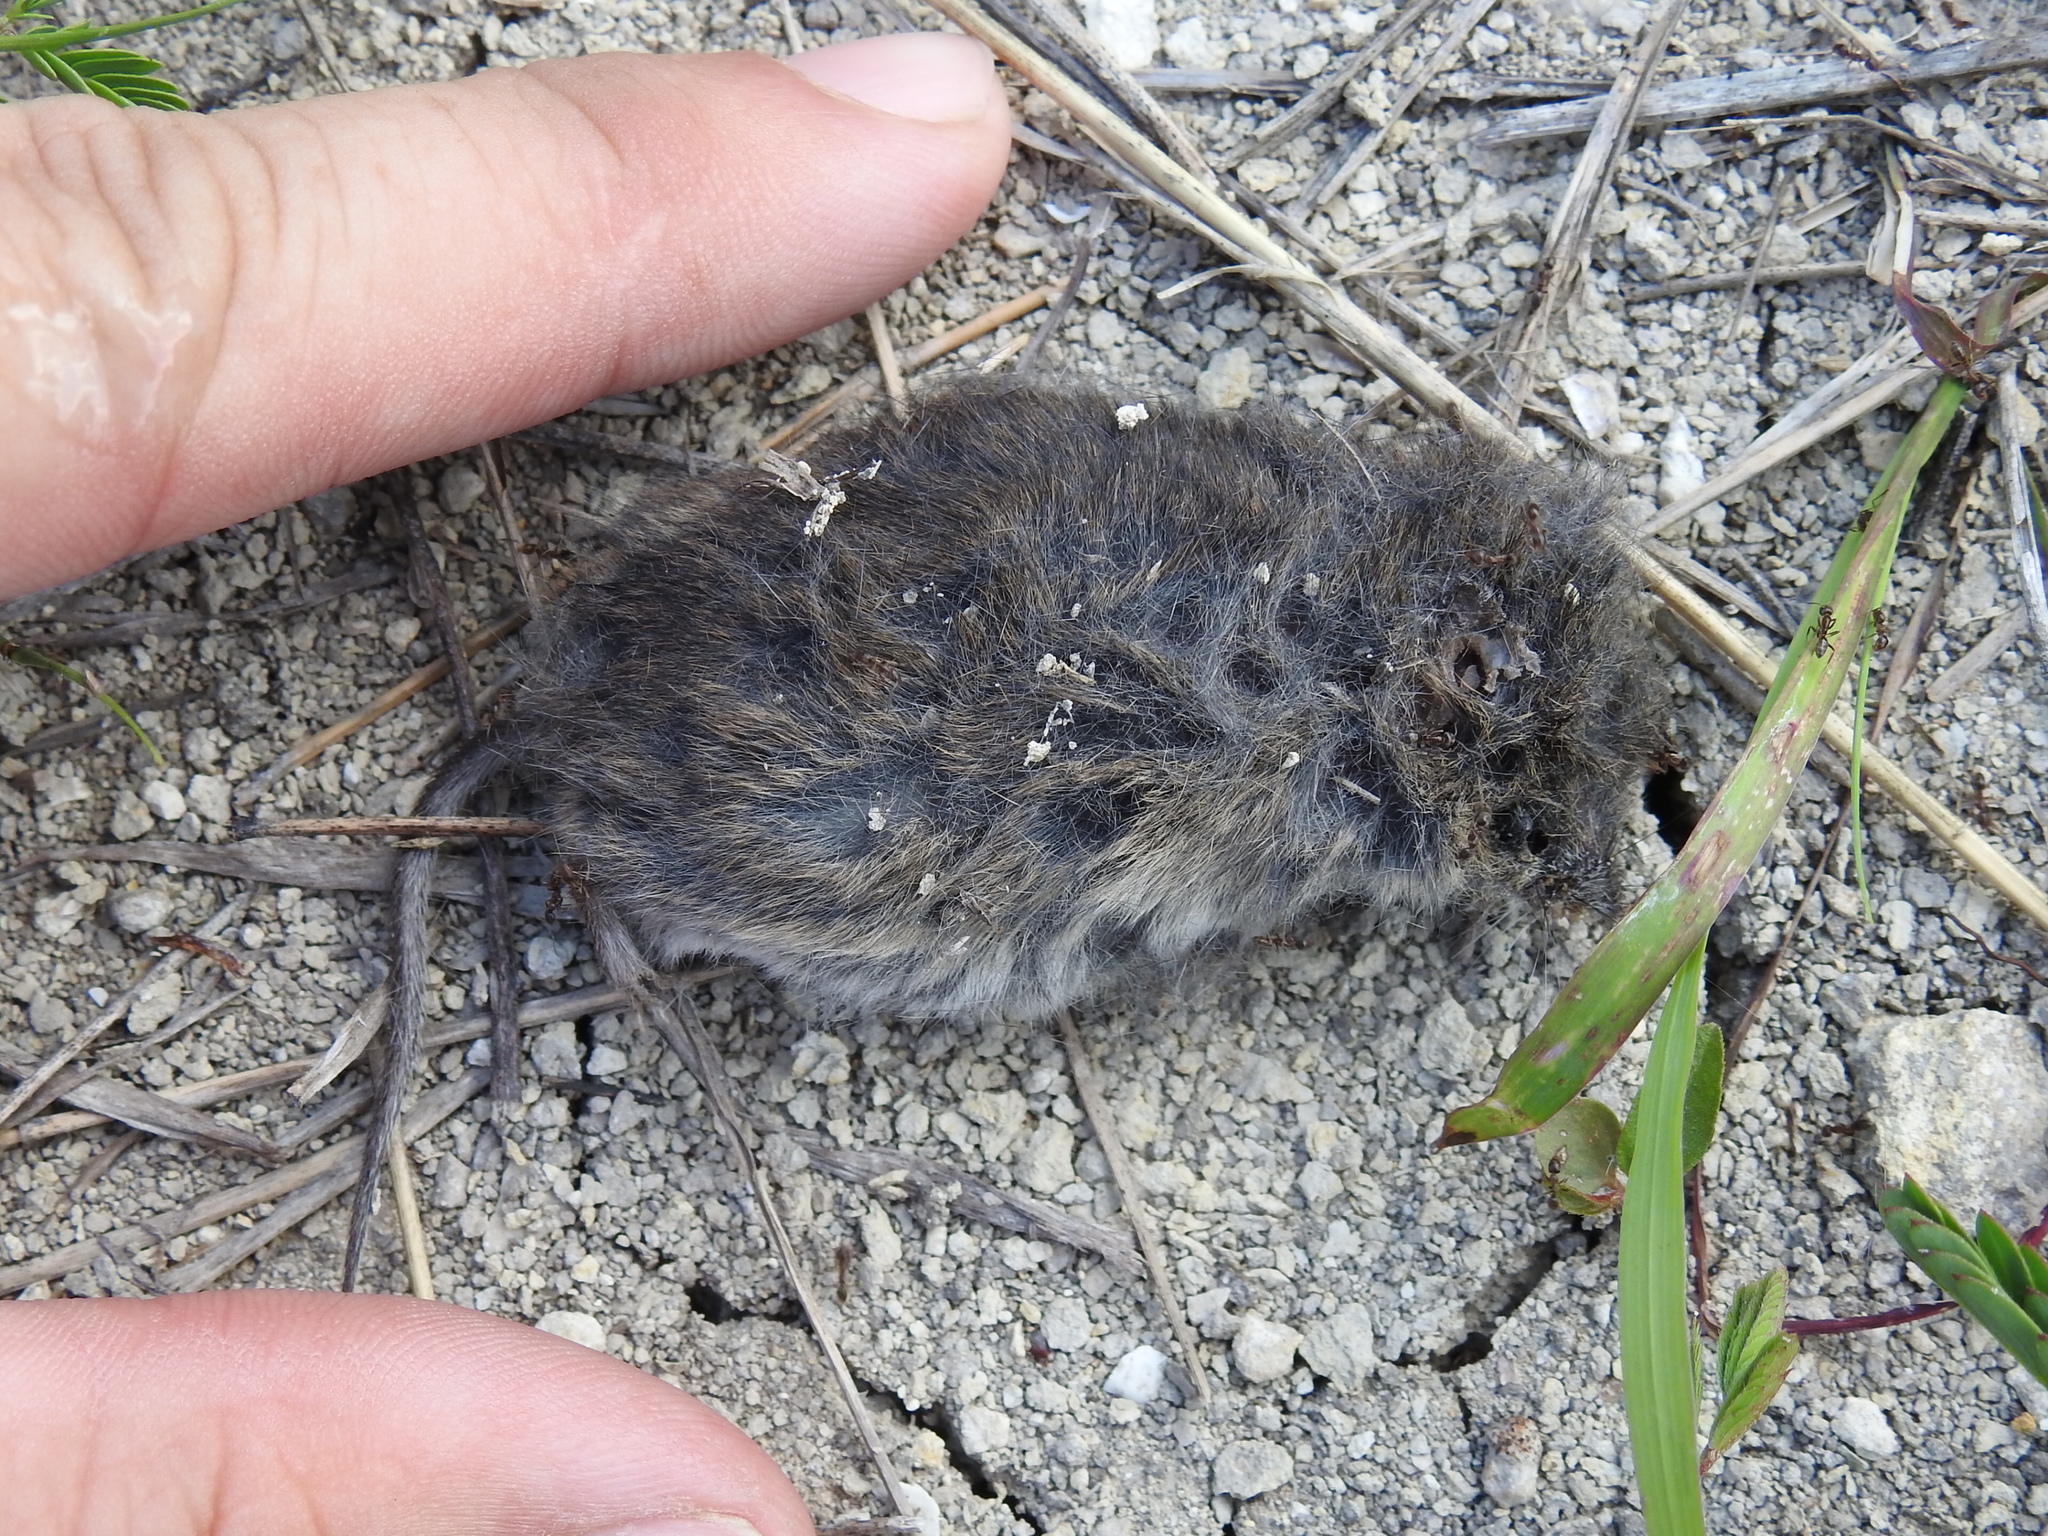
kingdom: Animalia
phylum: Chordata
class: Mammalia
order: Rodentia
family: Cricetidae
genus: Baiomys
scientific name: Baiomys taylori
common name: Northern pygmy mouse
